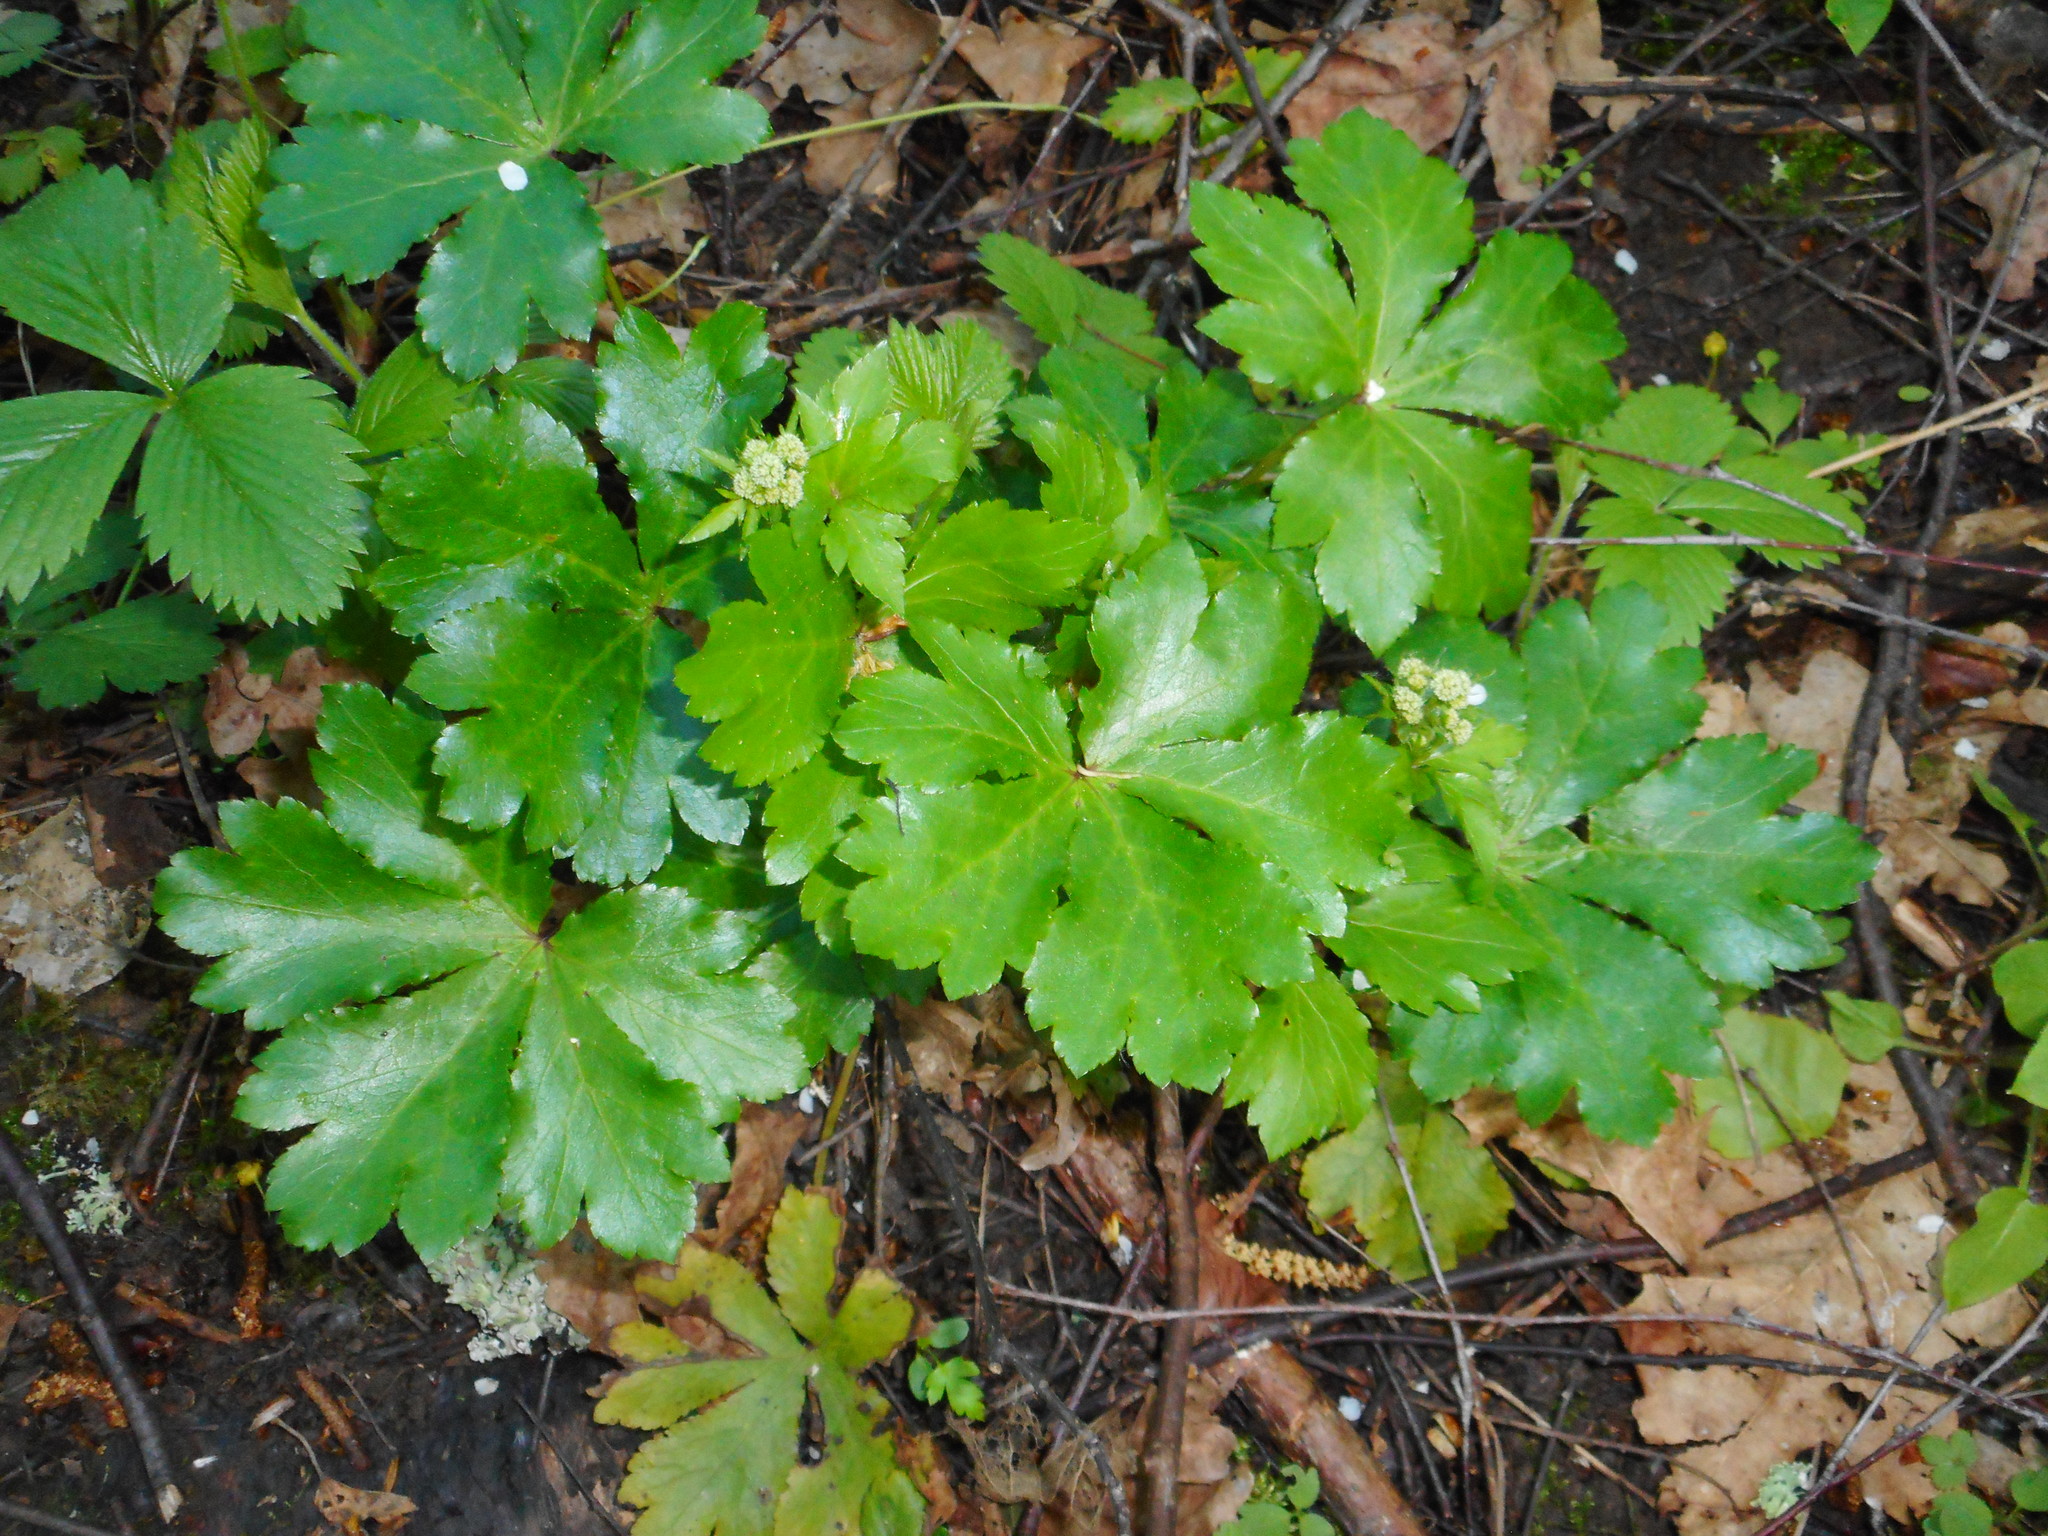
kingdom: Plantae
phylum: Tracheophyta
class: Magnoliopsida
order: Apiales
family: Apiaceae
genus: Sanicula
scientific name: Sanicula europaea
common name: Sanicle
